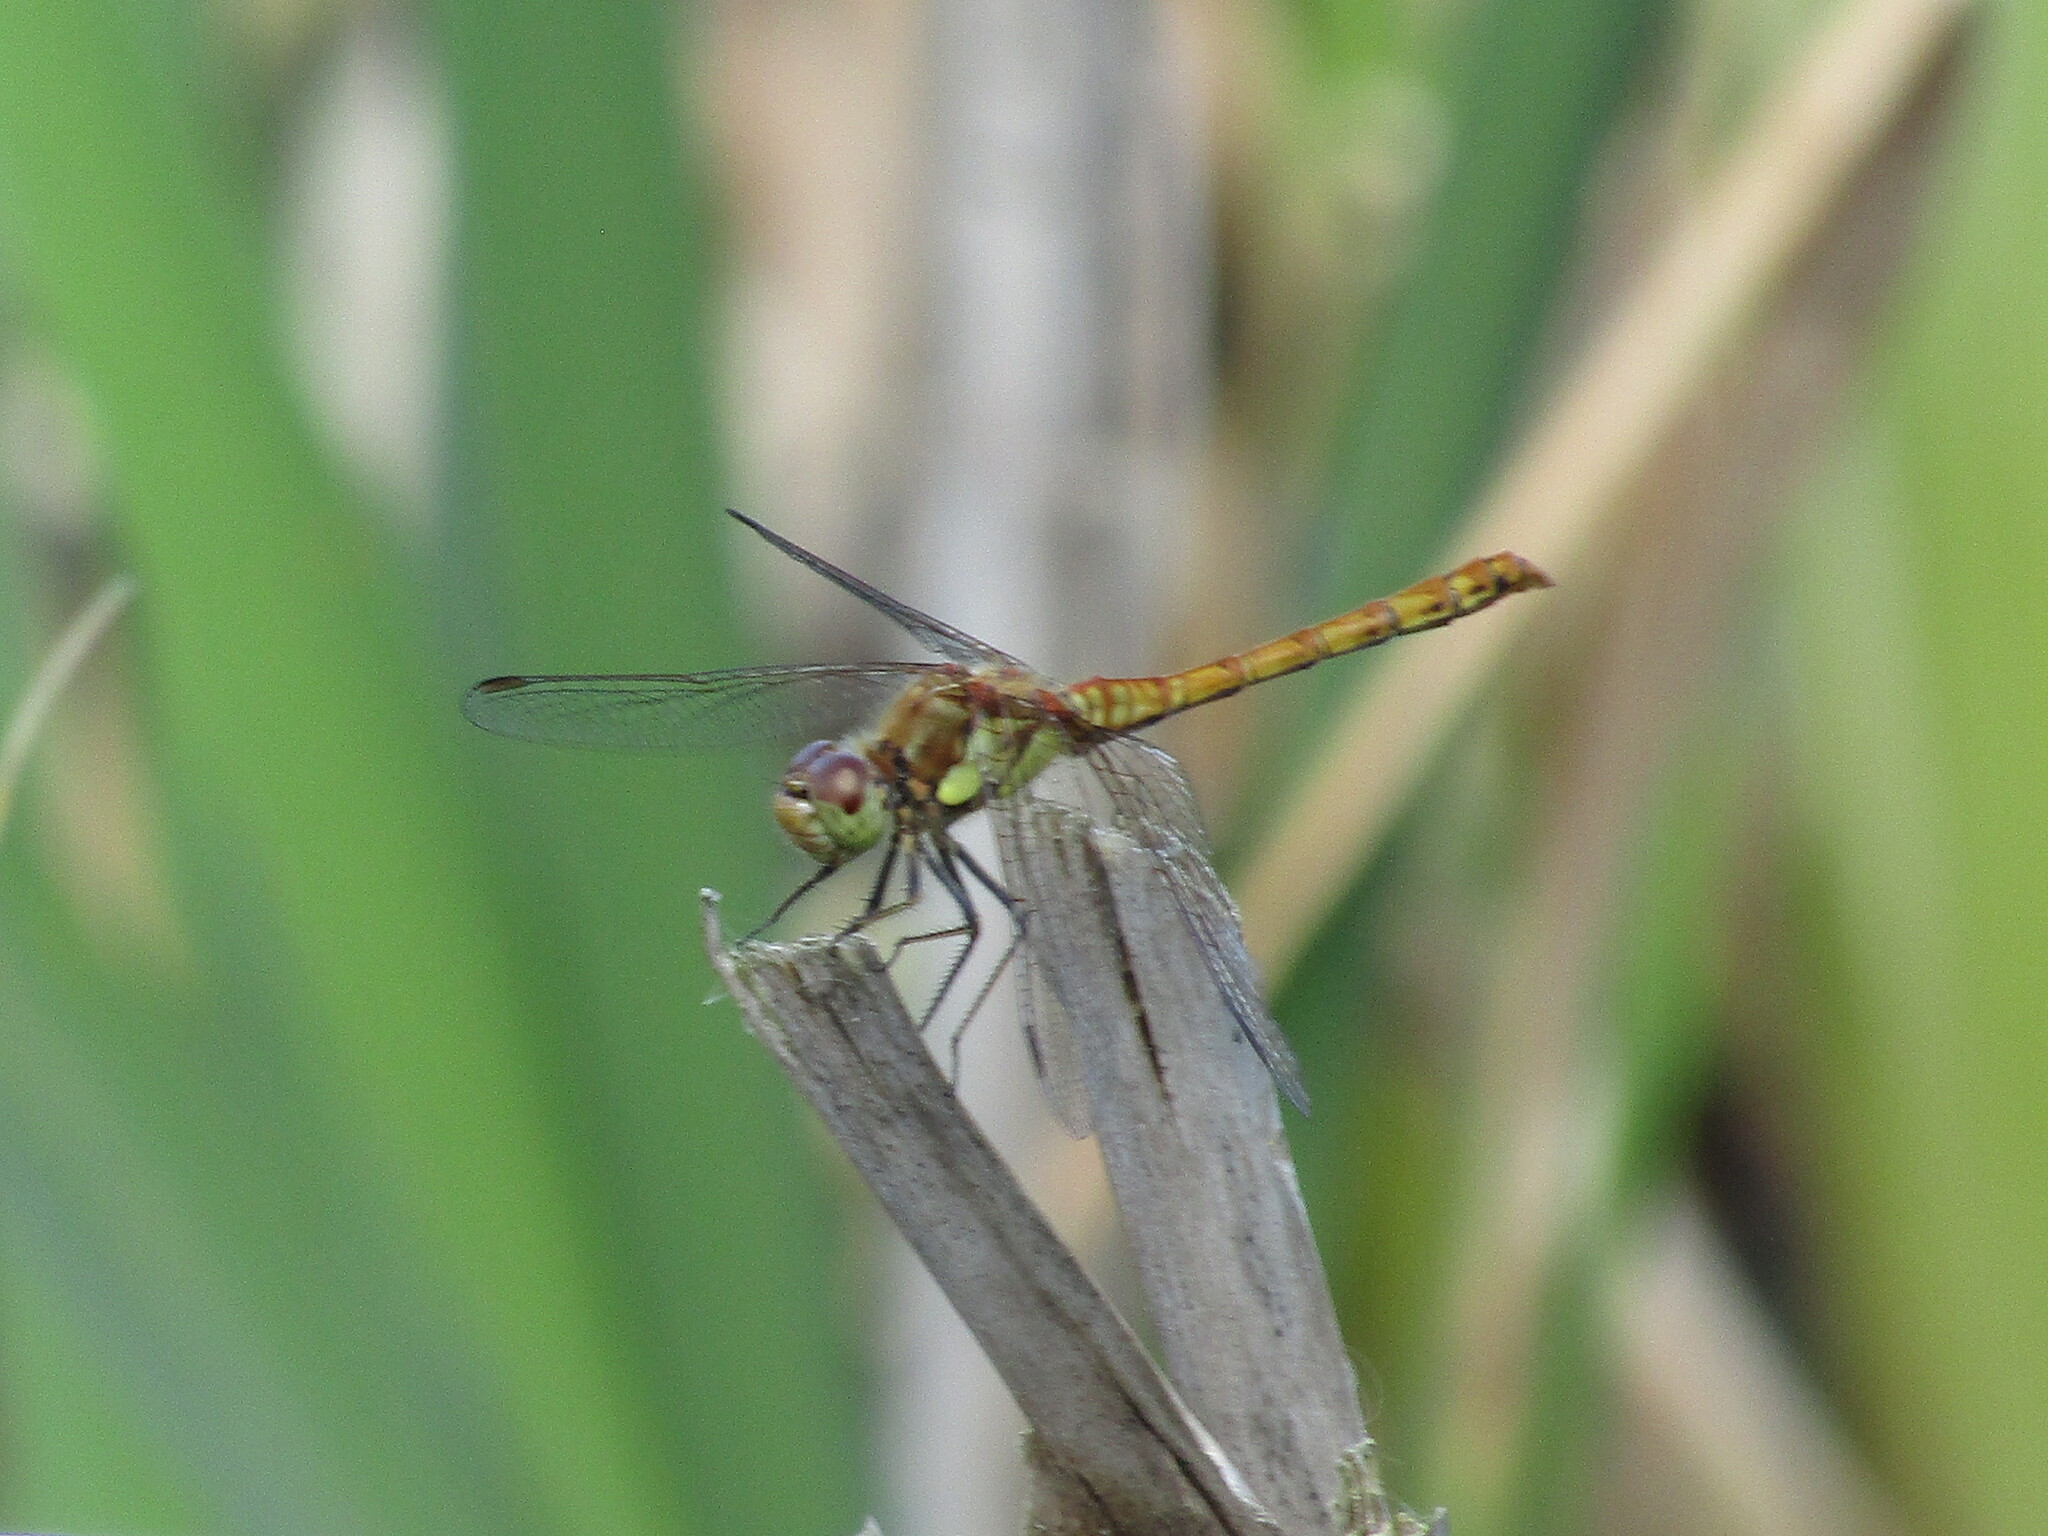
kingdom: Animalia
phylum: Arthropoda
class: Insecta
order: Odonata
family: Libellulidae
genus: Sympetrum
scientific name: Sympetrum striolatum
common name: Common darter
